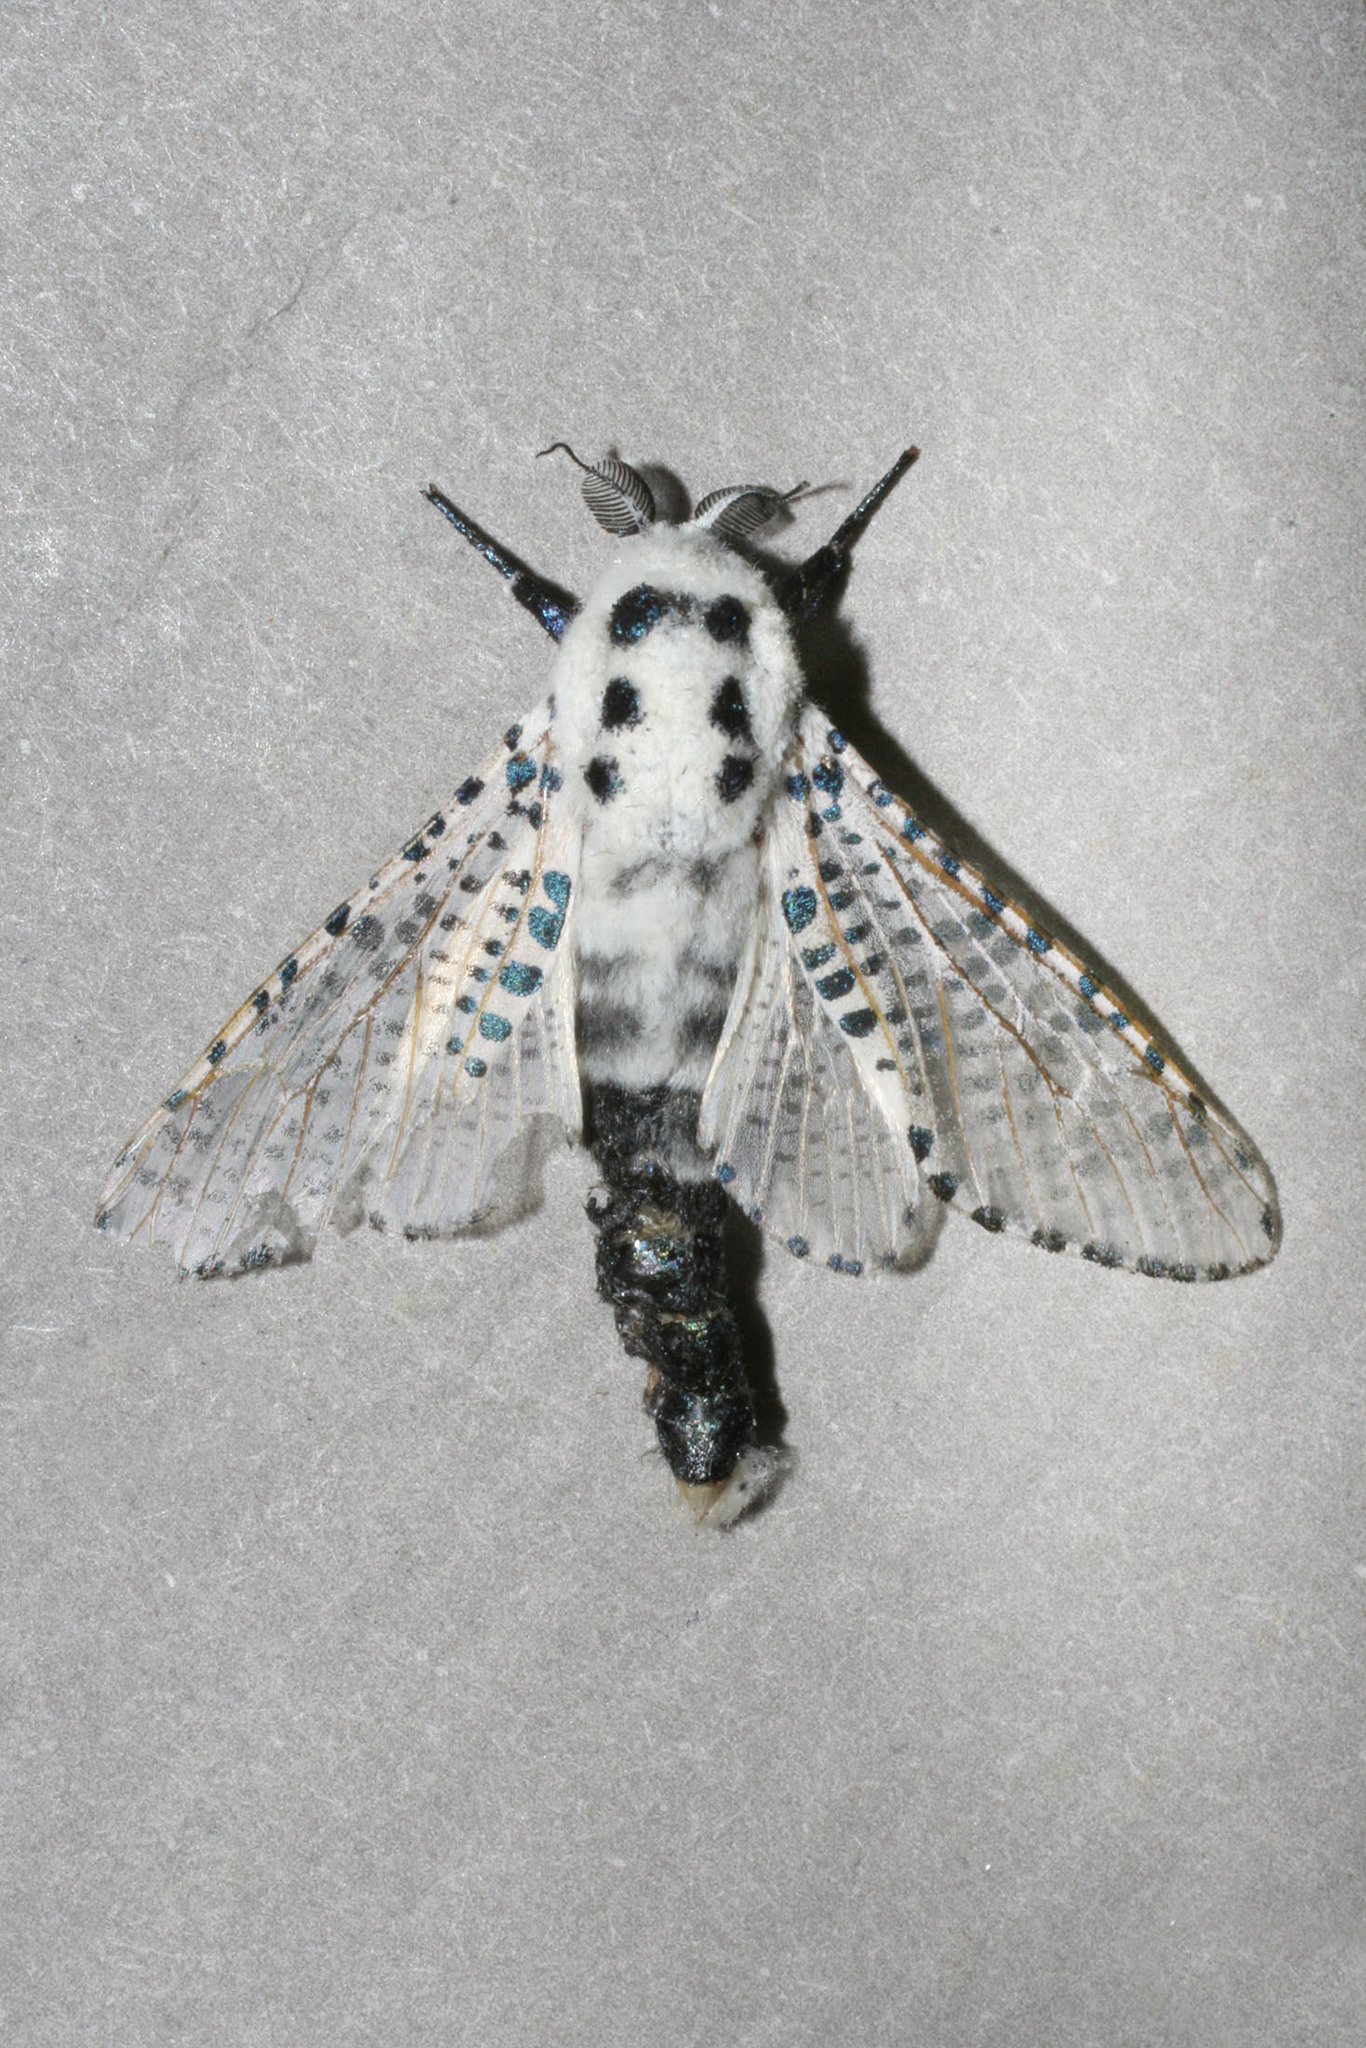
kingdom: Animalia
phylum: Arthropoda
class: Insecta
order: Lepidoptera
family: Cossidae
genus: Zeuzera
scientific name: Zeuzera pyrina
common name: Leopard moth
